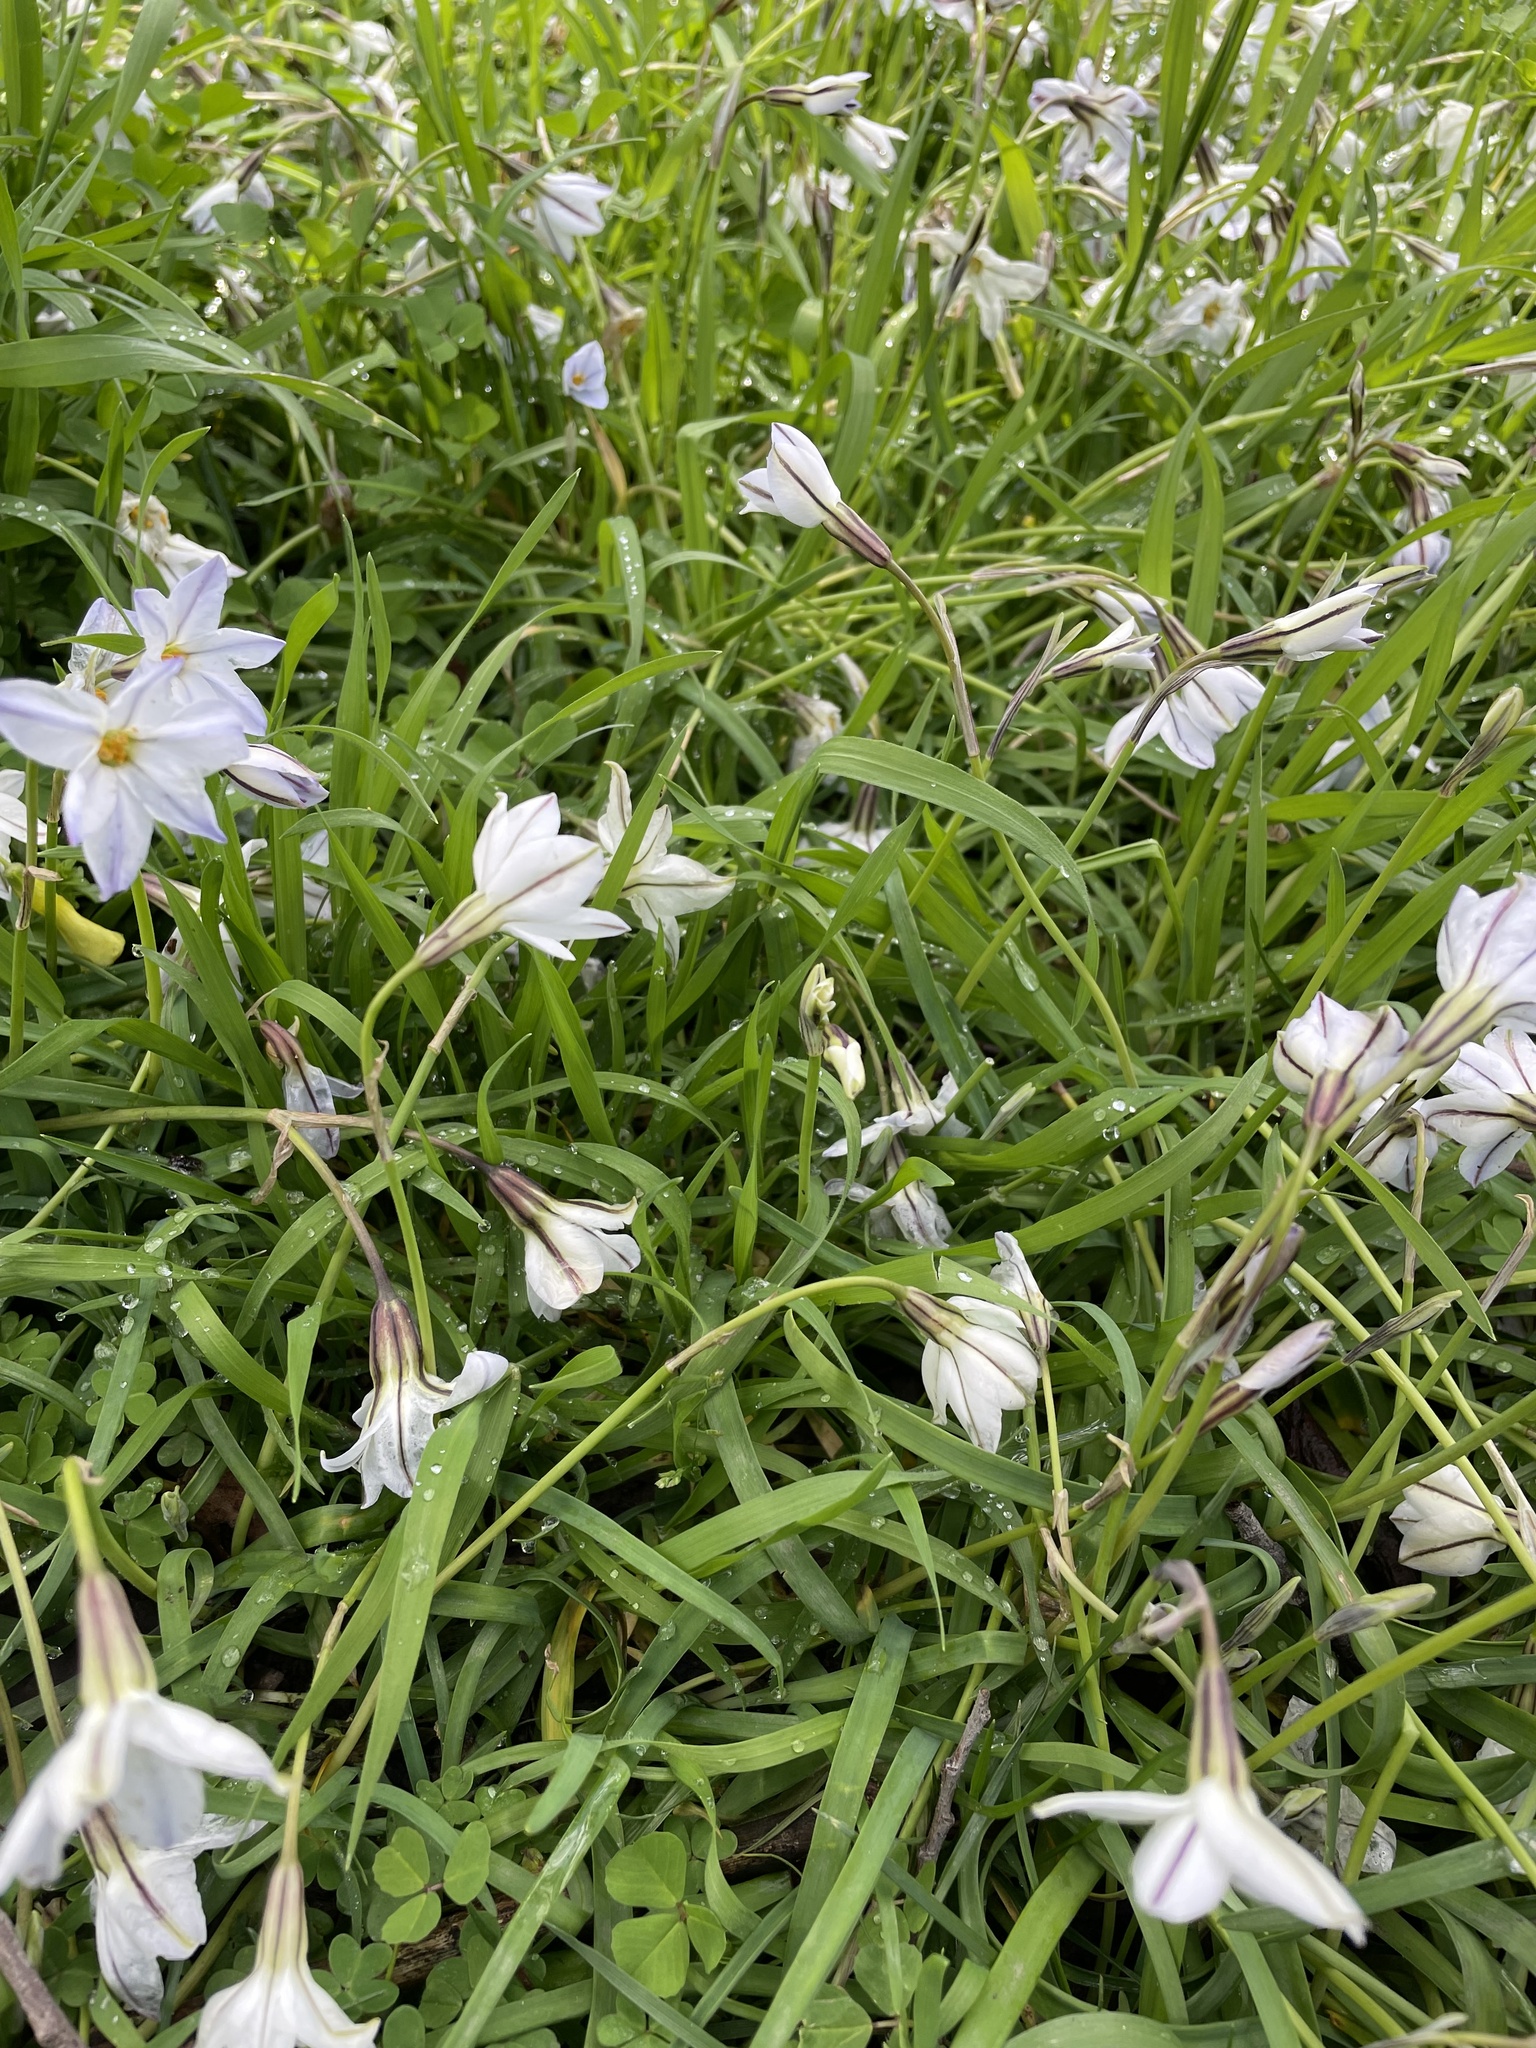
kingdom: Plantae
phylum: Tracheophyta
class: Liliopsida
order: Asparagales
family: Amaryllidaceae
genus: Ipheion
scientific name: Ipheion uniflorum
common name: Spring starflower
